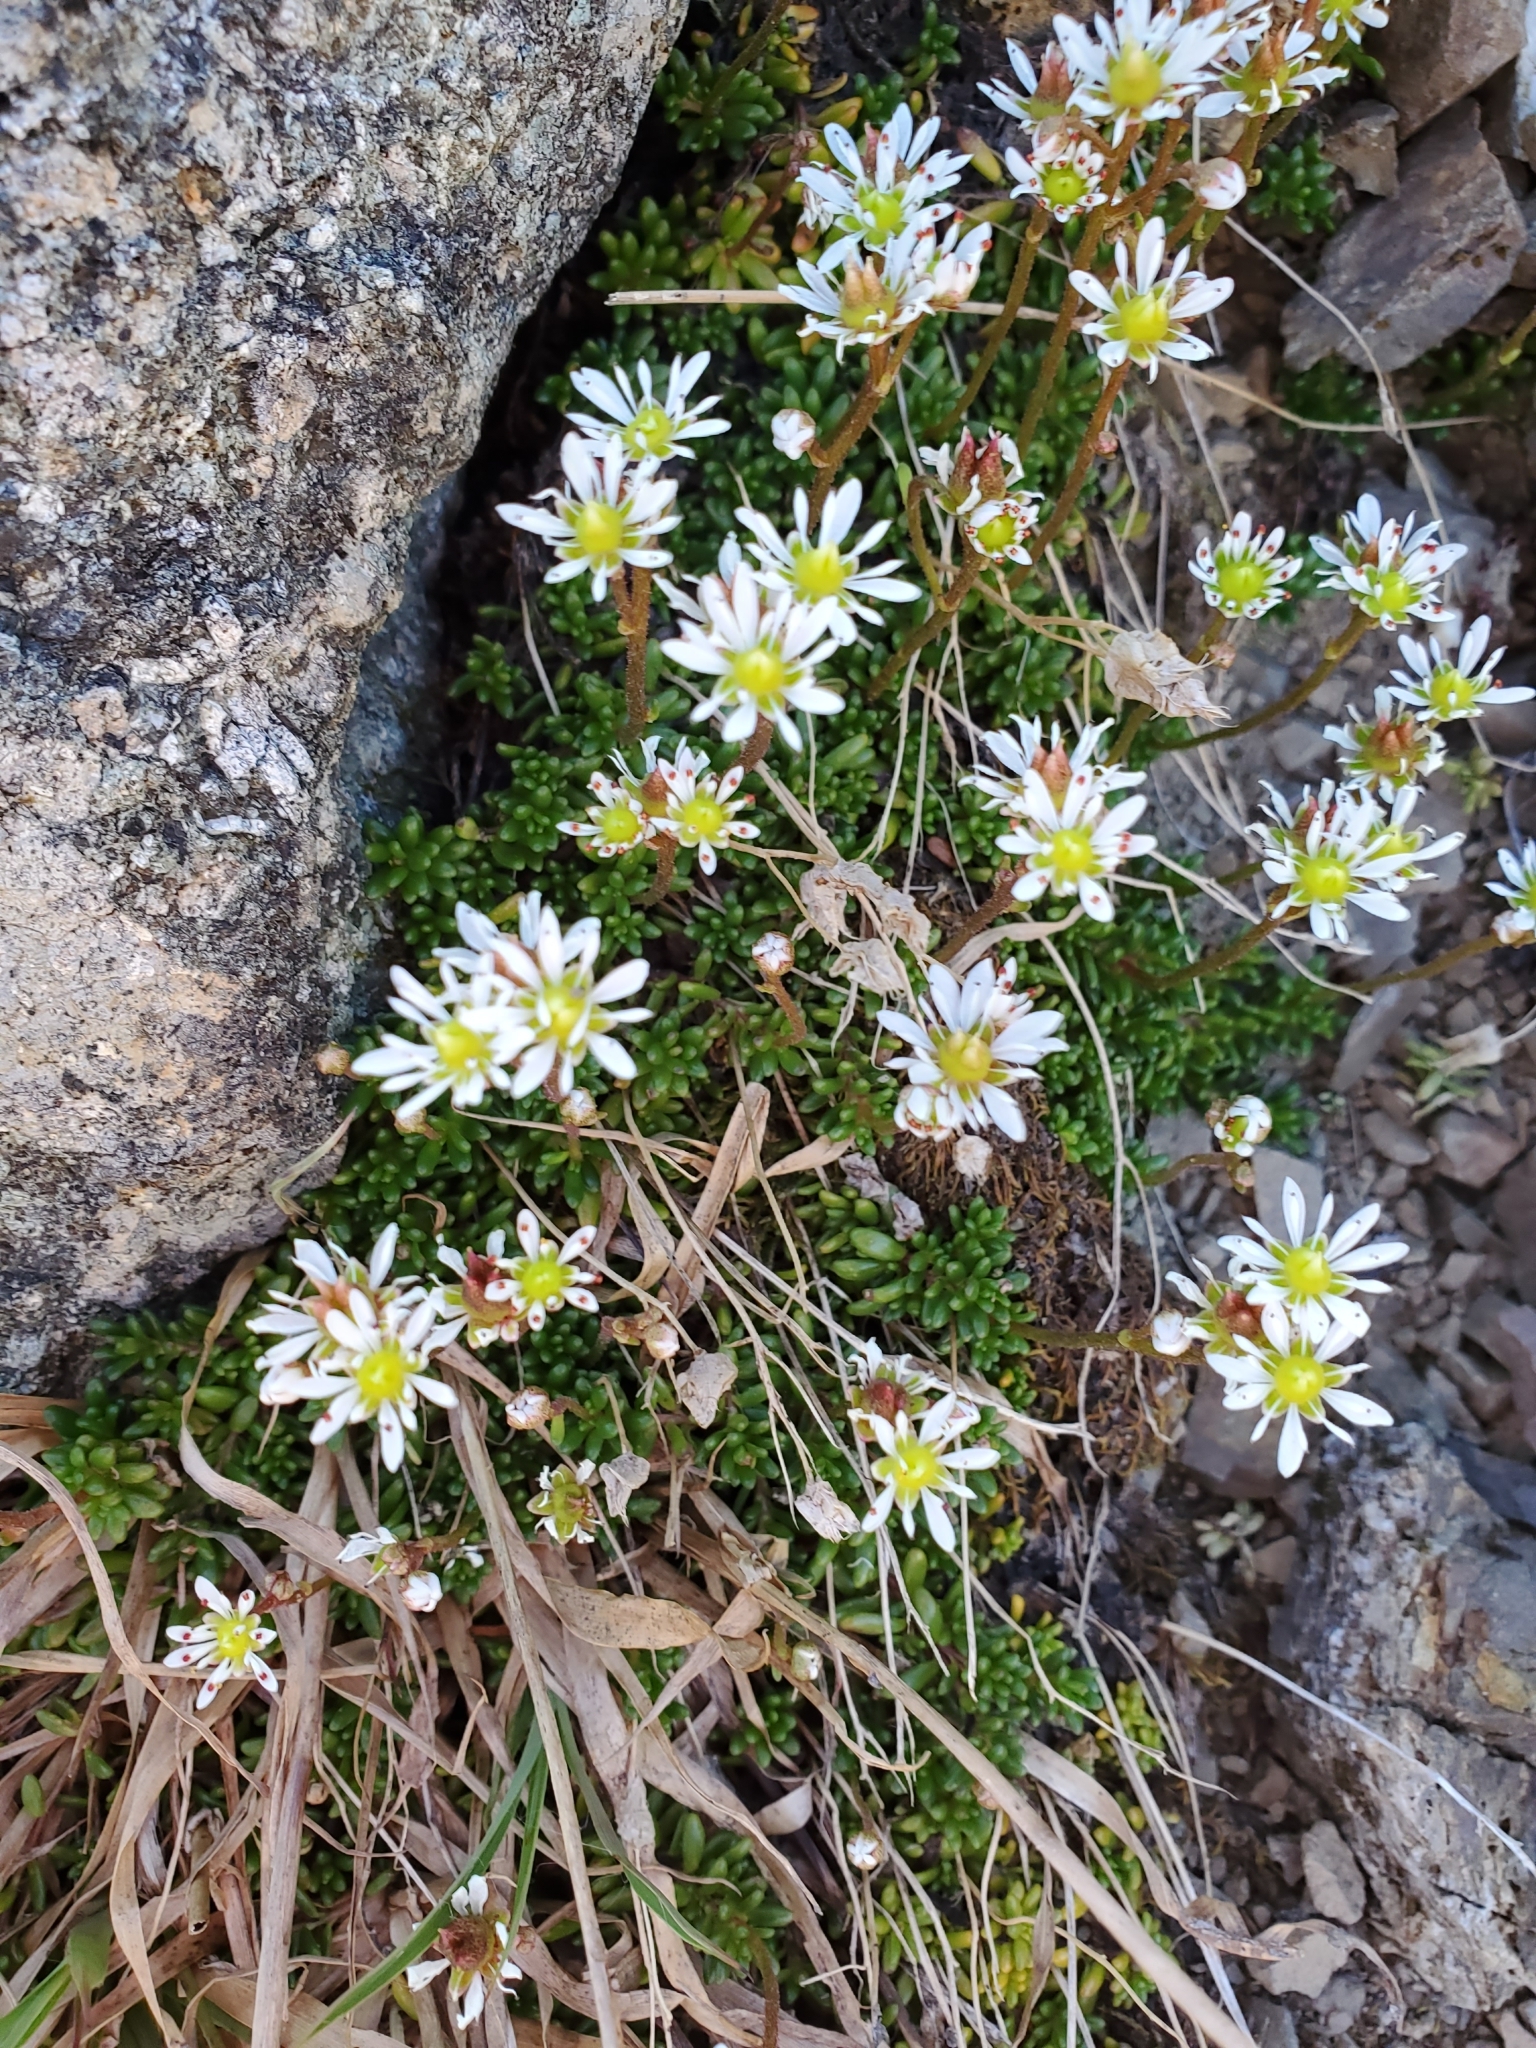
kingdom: Plantae
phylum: Tracheophyta
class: Magnoliopsida
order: Saxifragales
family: Saxifragaceae
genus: Micranthes
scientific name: Micranthes tolmiei
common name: Tolmie's saxifrage
